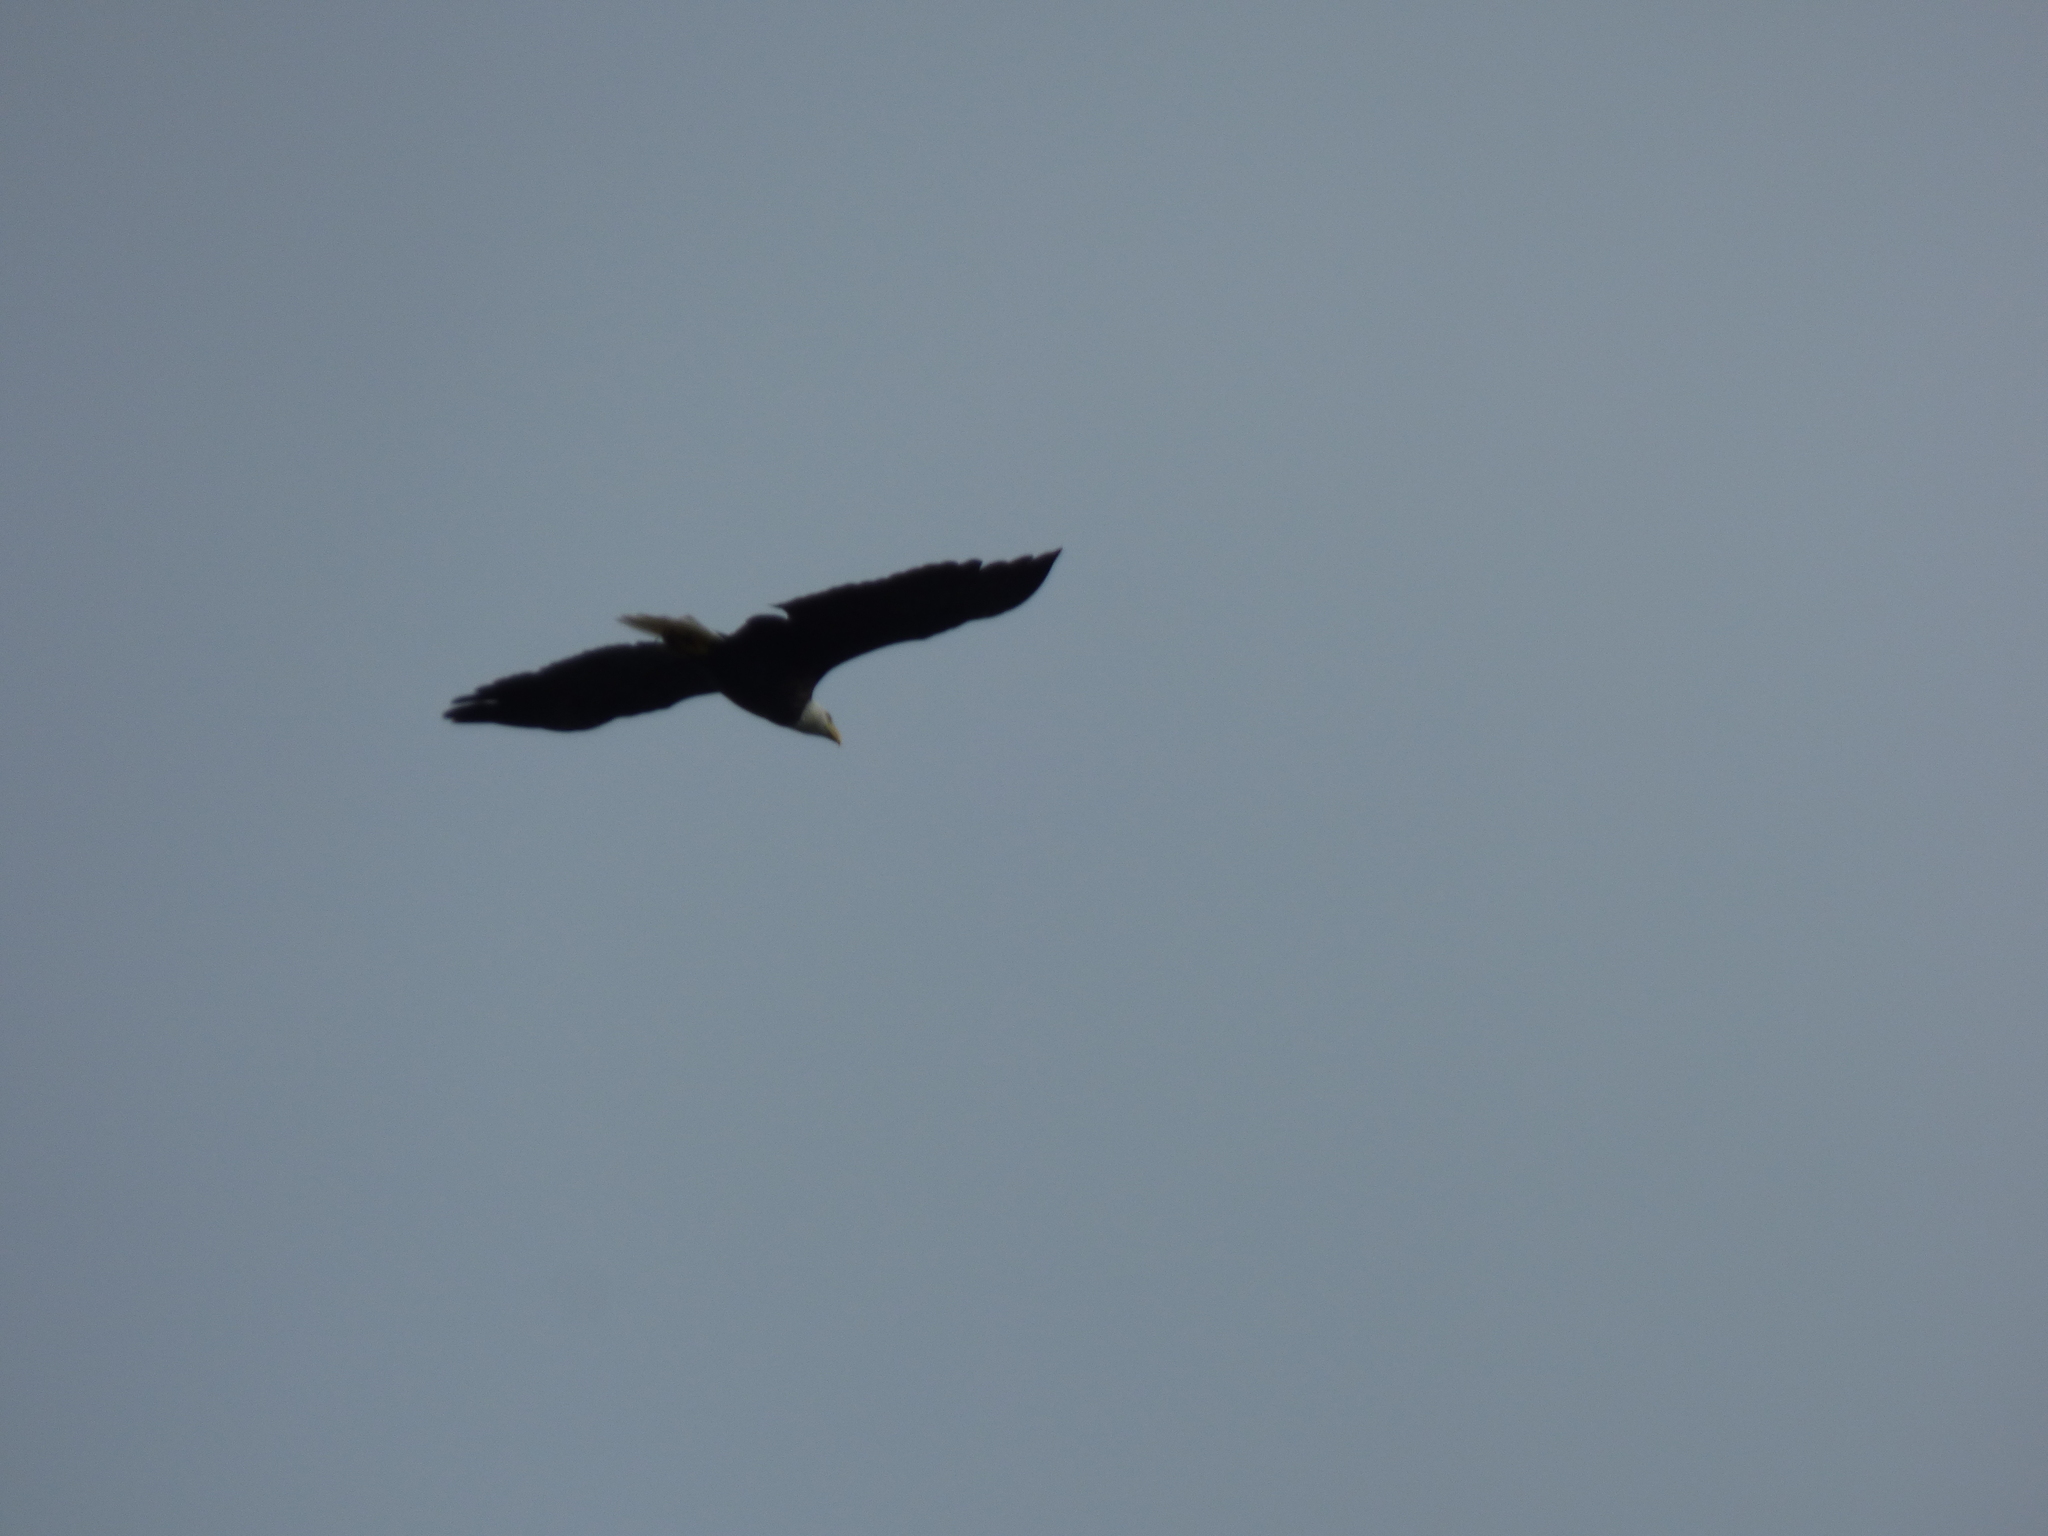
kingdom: Animalia
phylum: Chordata
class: Aves
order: Accipitriformes
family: Accipitridae
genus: Haliaeetus
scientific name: Haliaeetus leucocephalus
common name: Bald eagle
